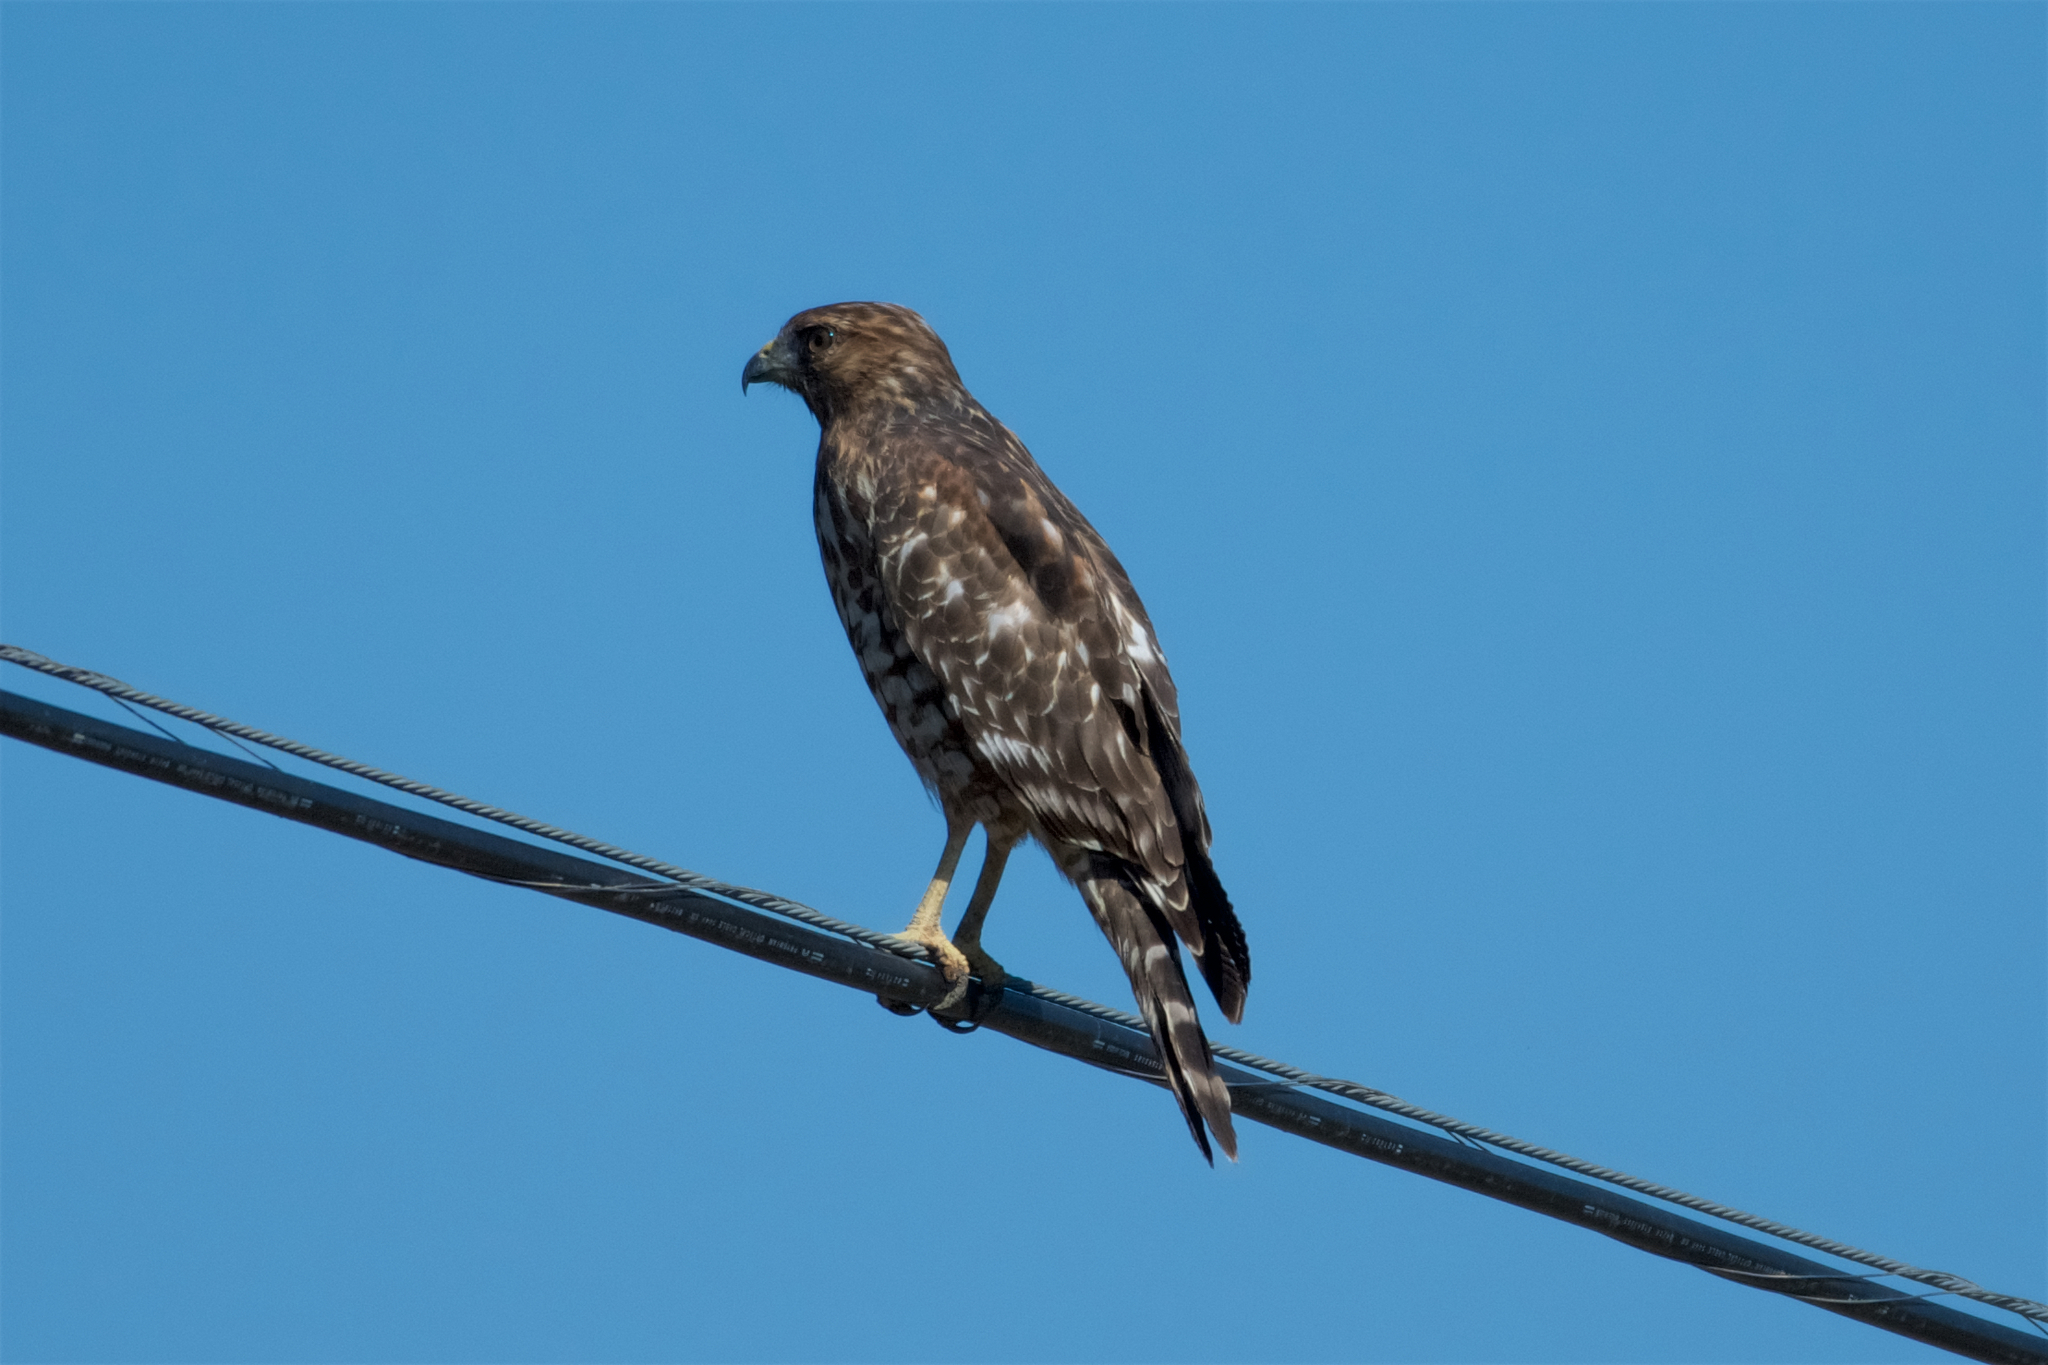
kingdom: Animalia
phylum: Chordata
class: Aves
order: Accipitriformes
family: Accipitridae
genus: Buteo
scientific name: Buteo lineatus
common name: Red-shouldered hawk
